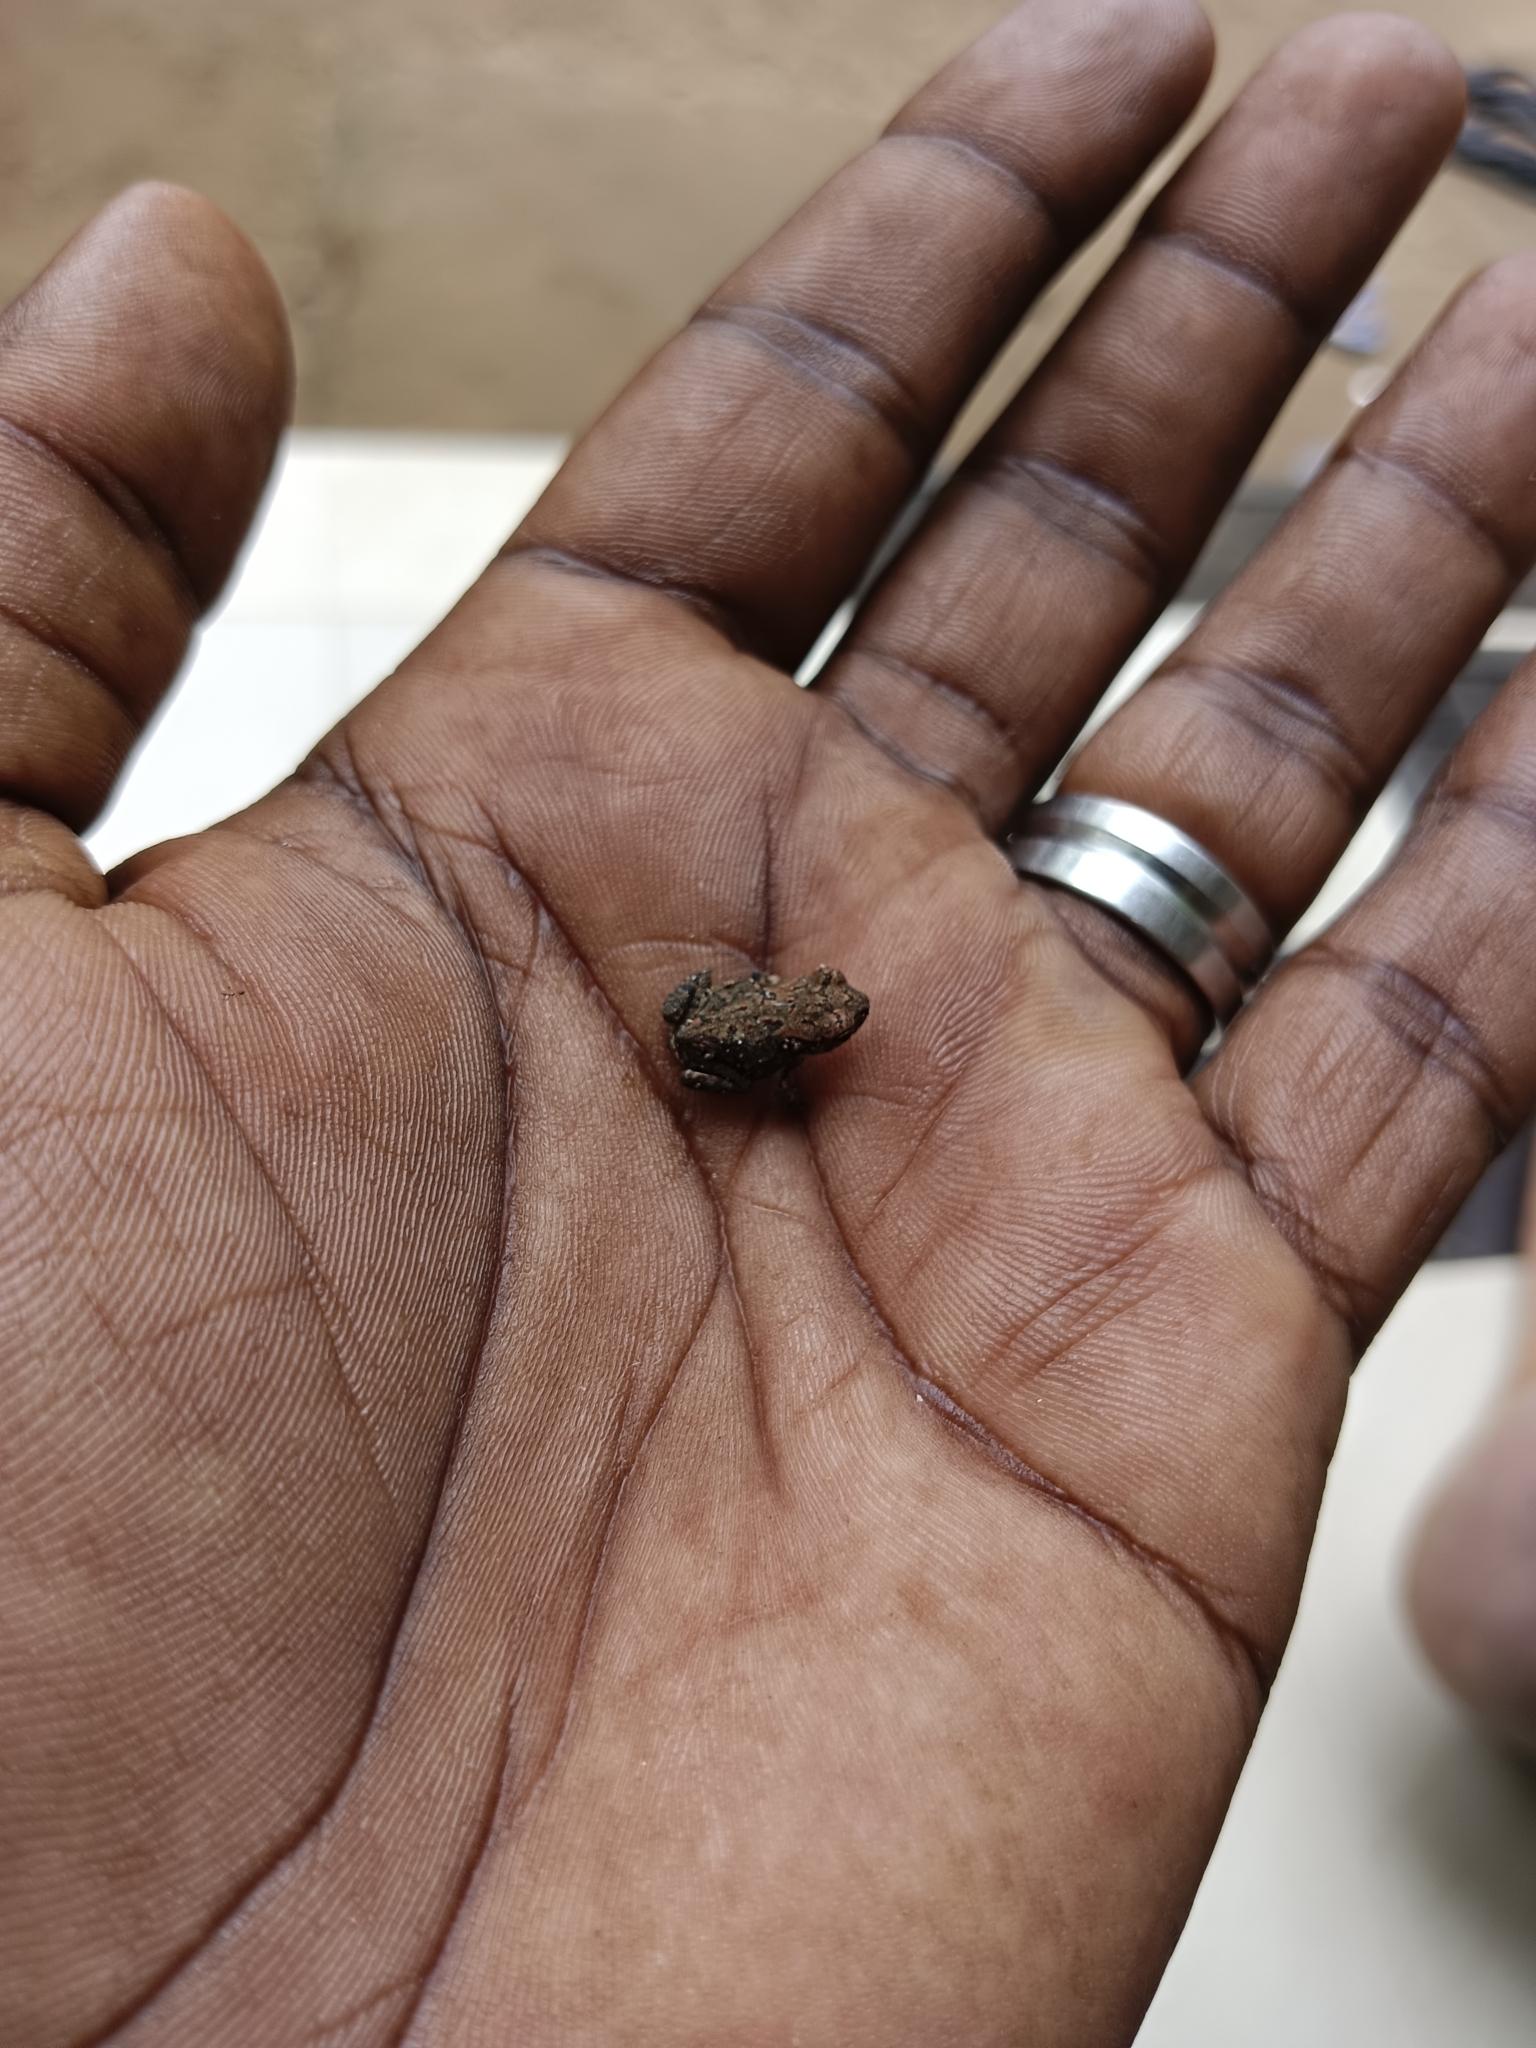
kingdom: Animalia
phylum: Chordata
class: Amphibia
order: Anura
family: Bufonidae
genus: Duttaphrynus
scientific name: Duttaphrynus melanostictus
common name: Common sunda toad
